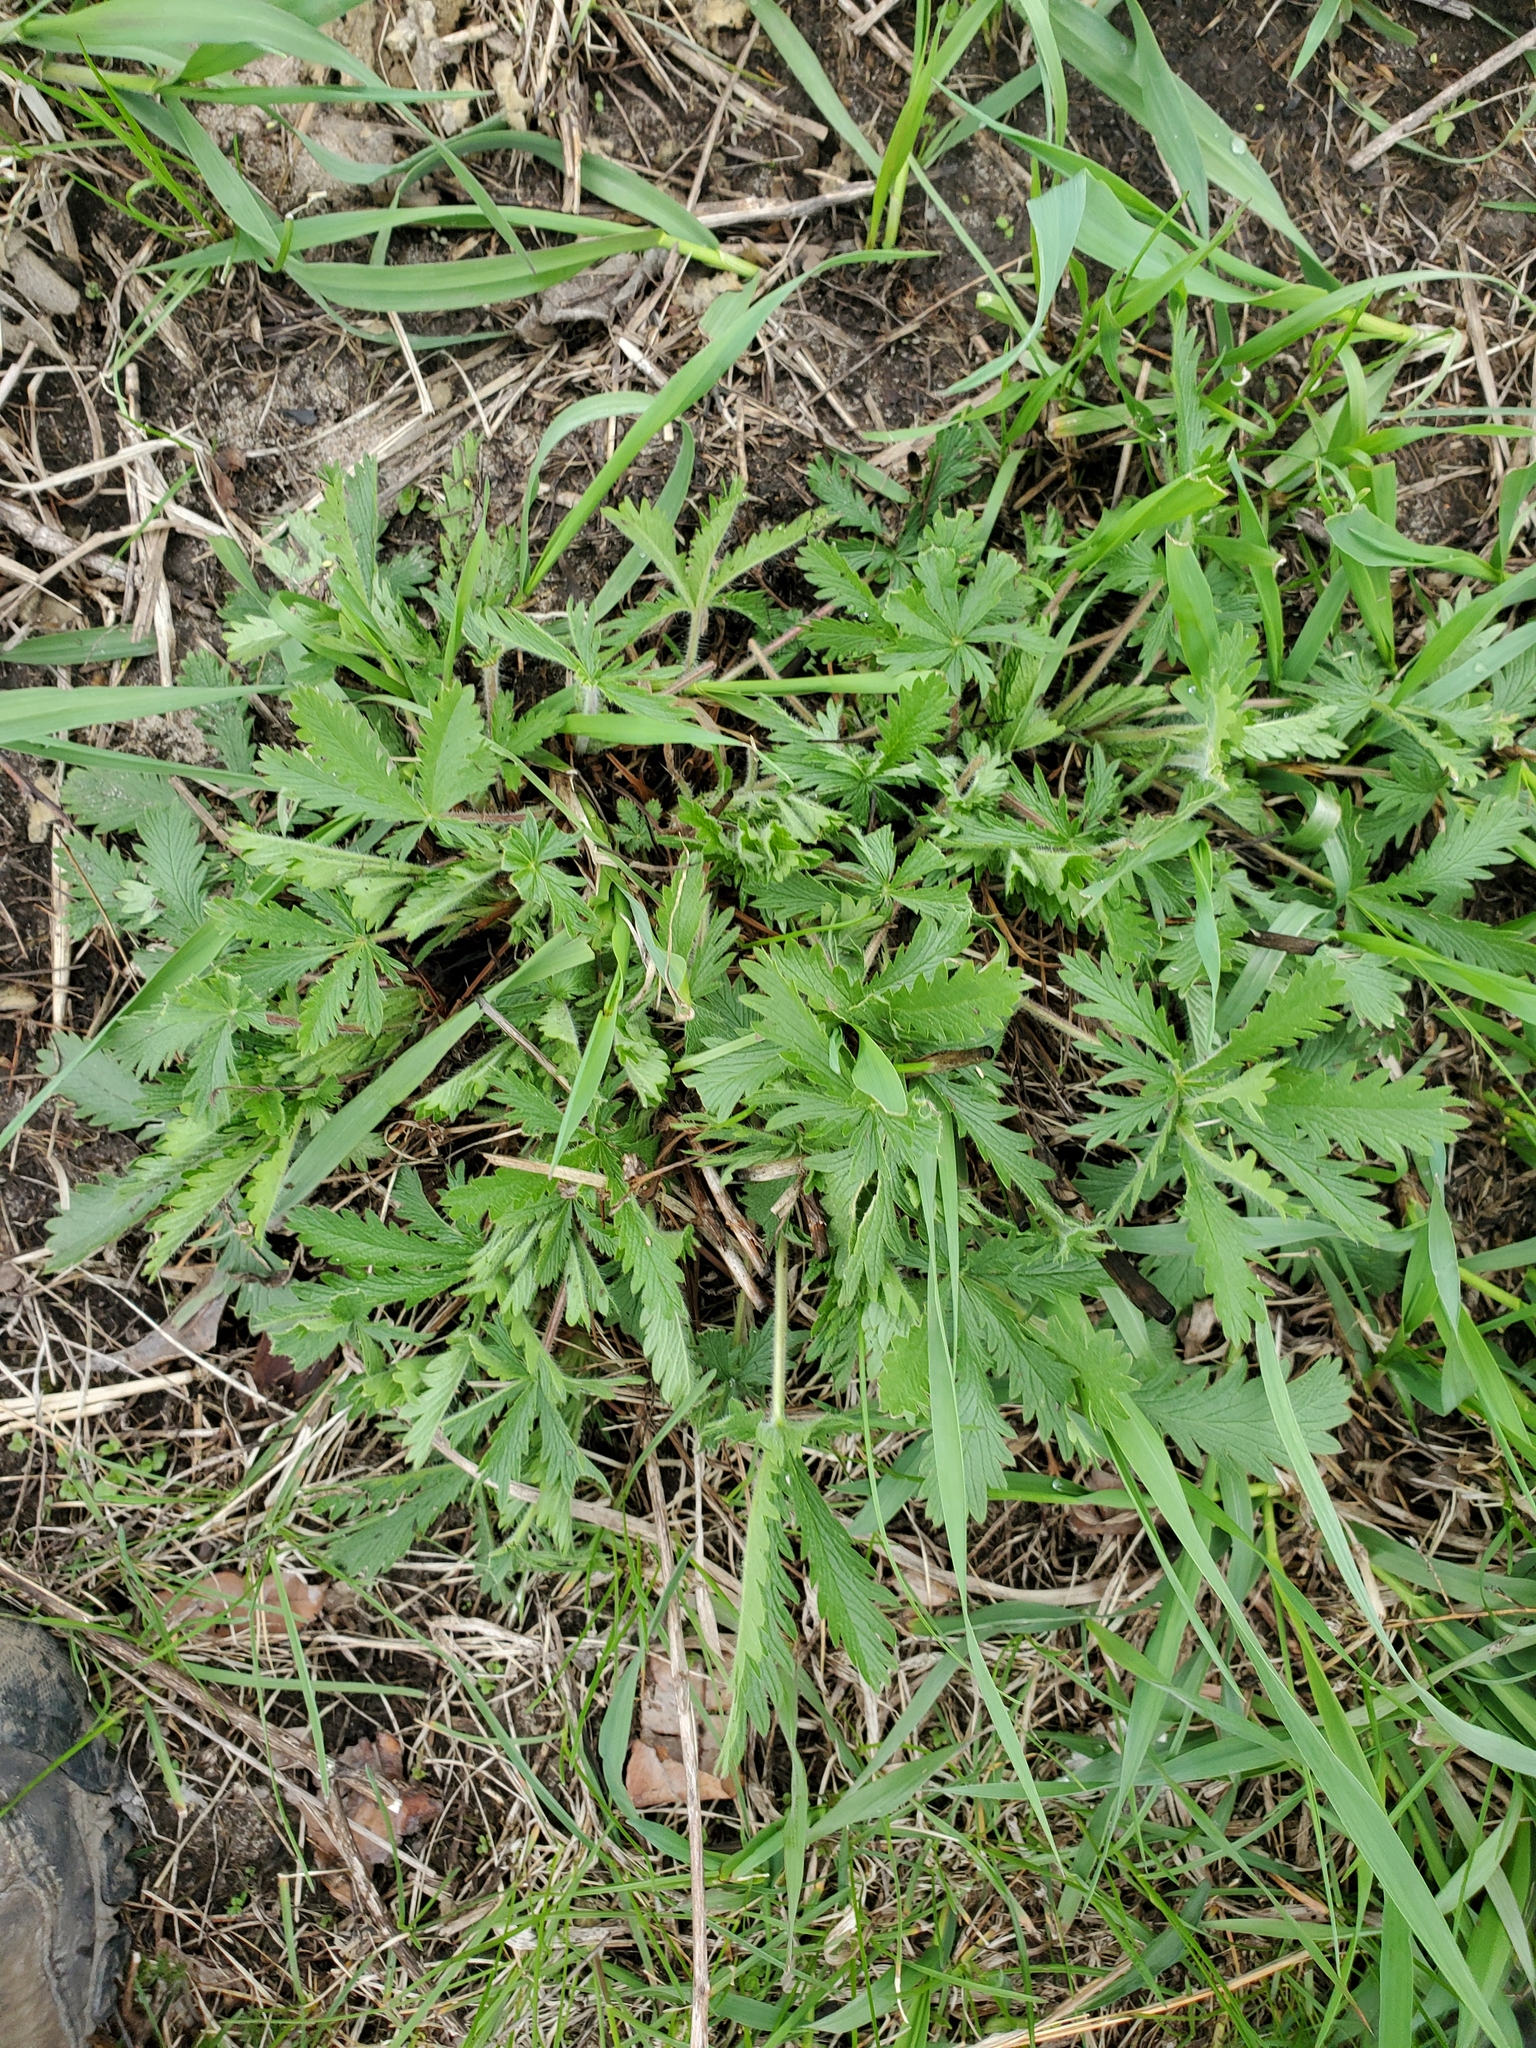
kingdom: Plantae
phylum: Tracheophyta
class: Magnoliopsida
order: Rosales
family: Rosaceae
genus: Potentilla
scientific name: Potentilla recta
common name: Sulphur cinquefoil
